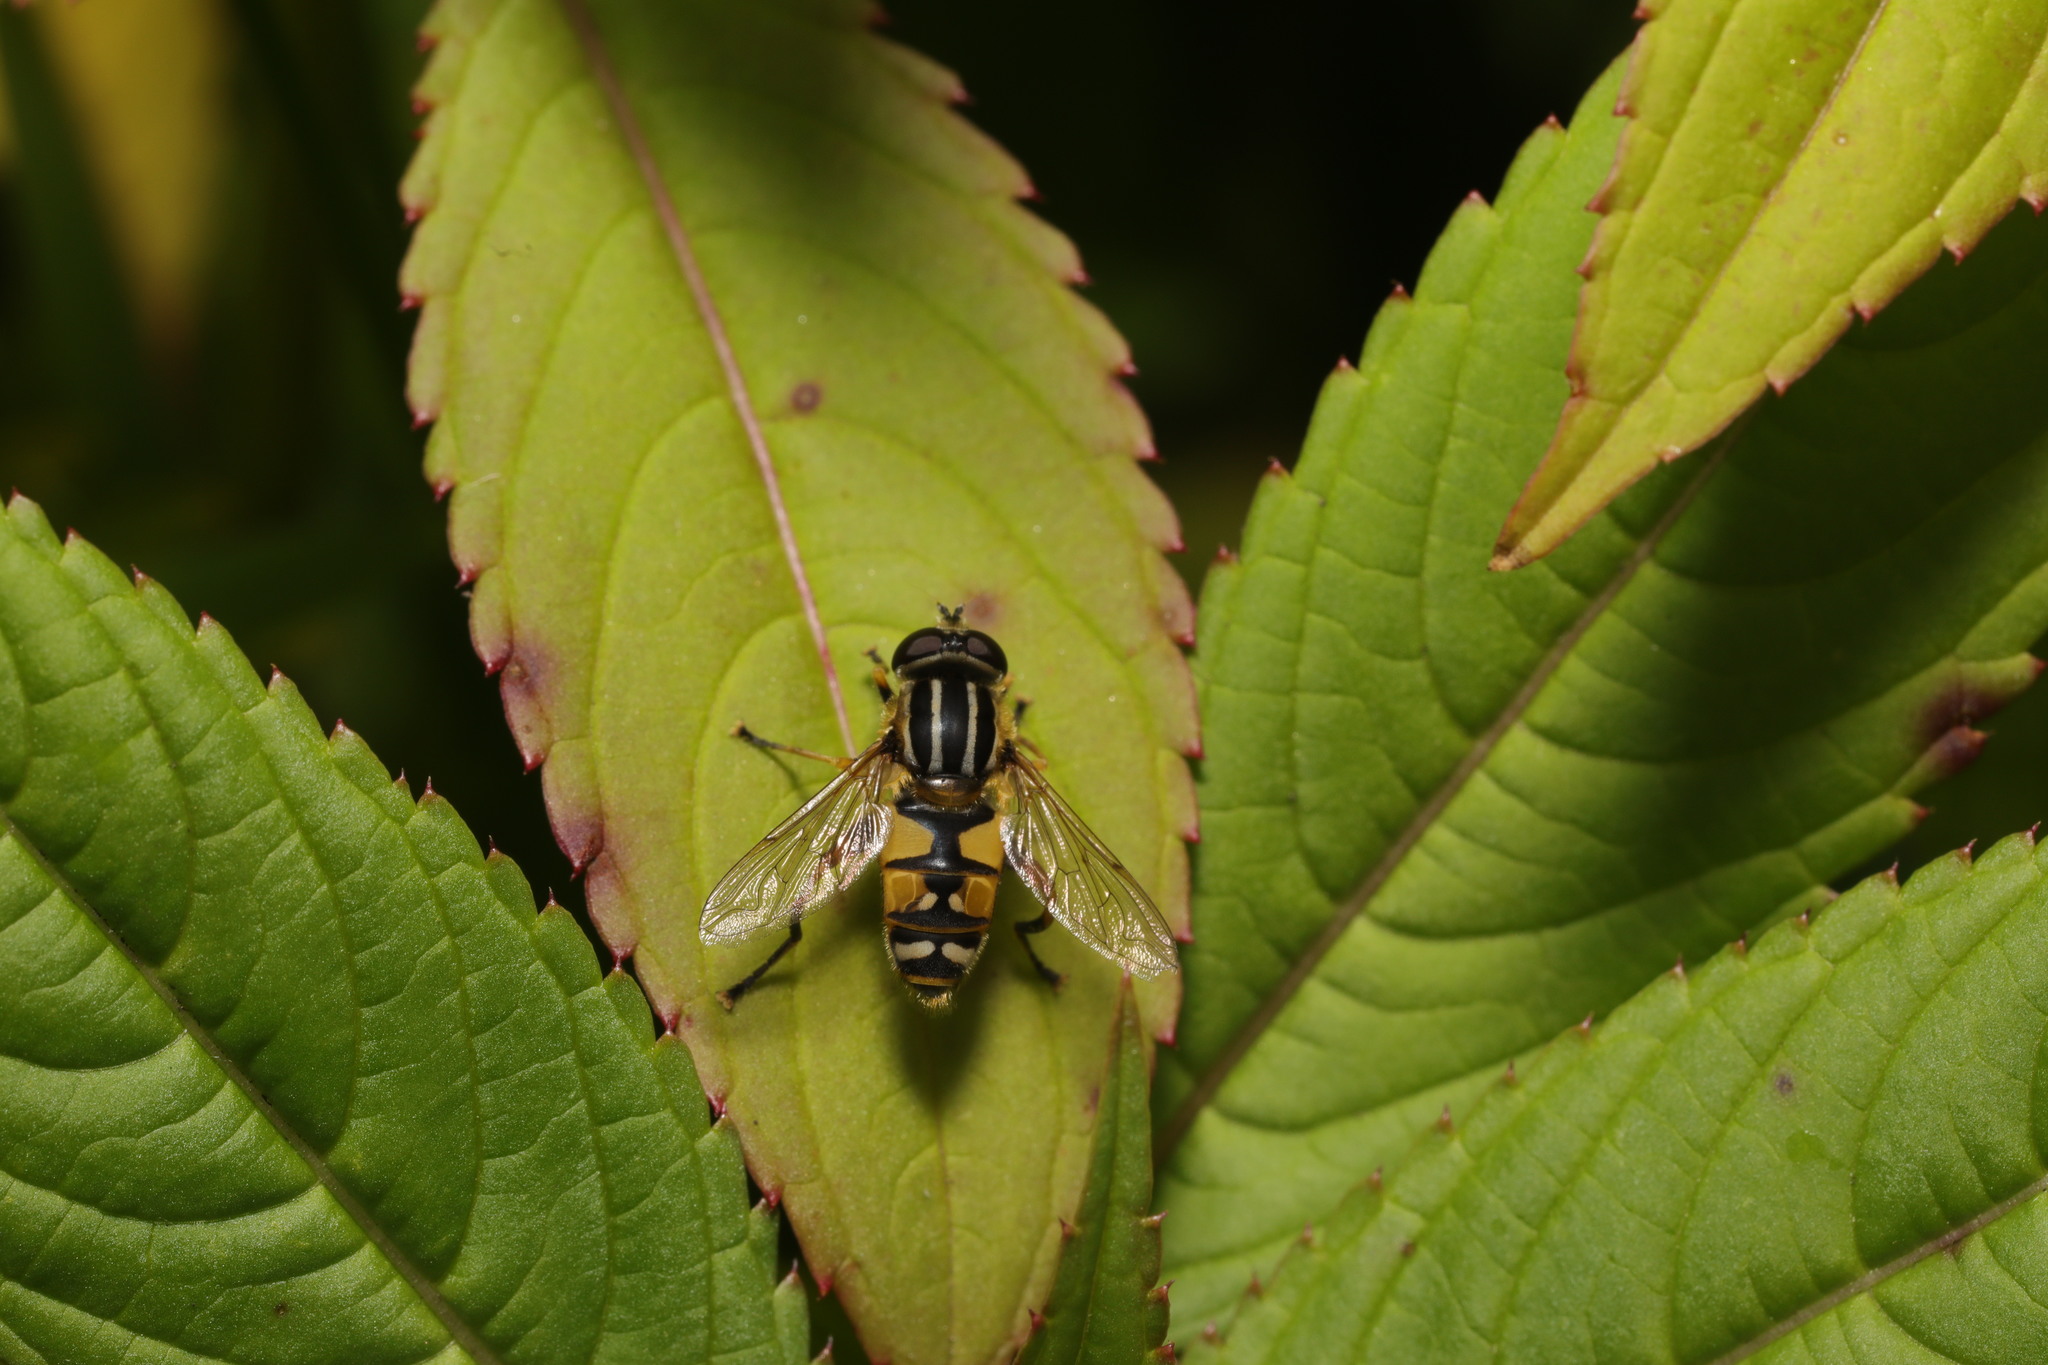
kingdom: Animalia
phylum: Arthropoda
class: Insecta
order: Diptera
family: Syrphidae
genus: Helophilus
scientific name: Helophilus pendulus
